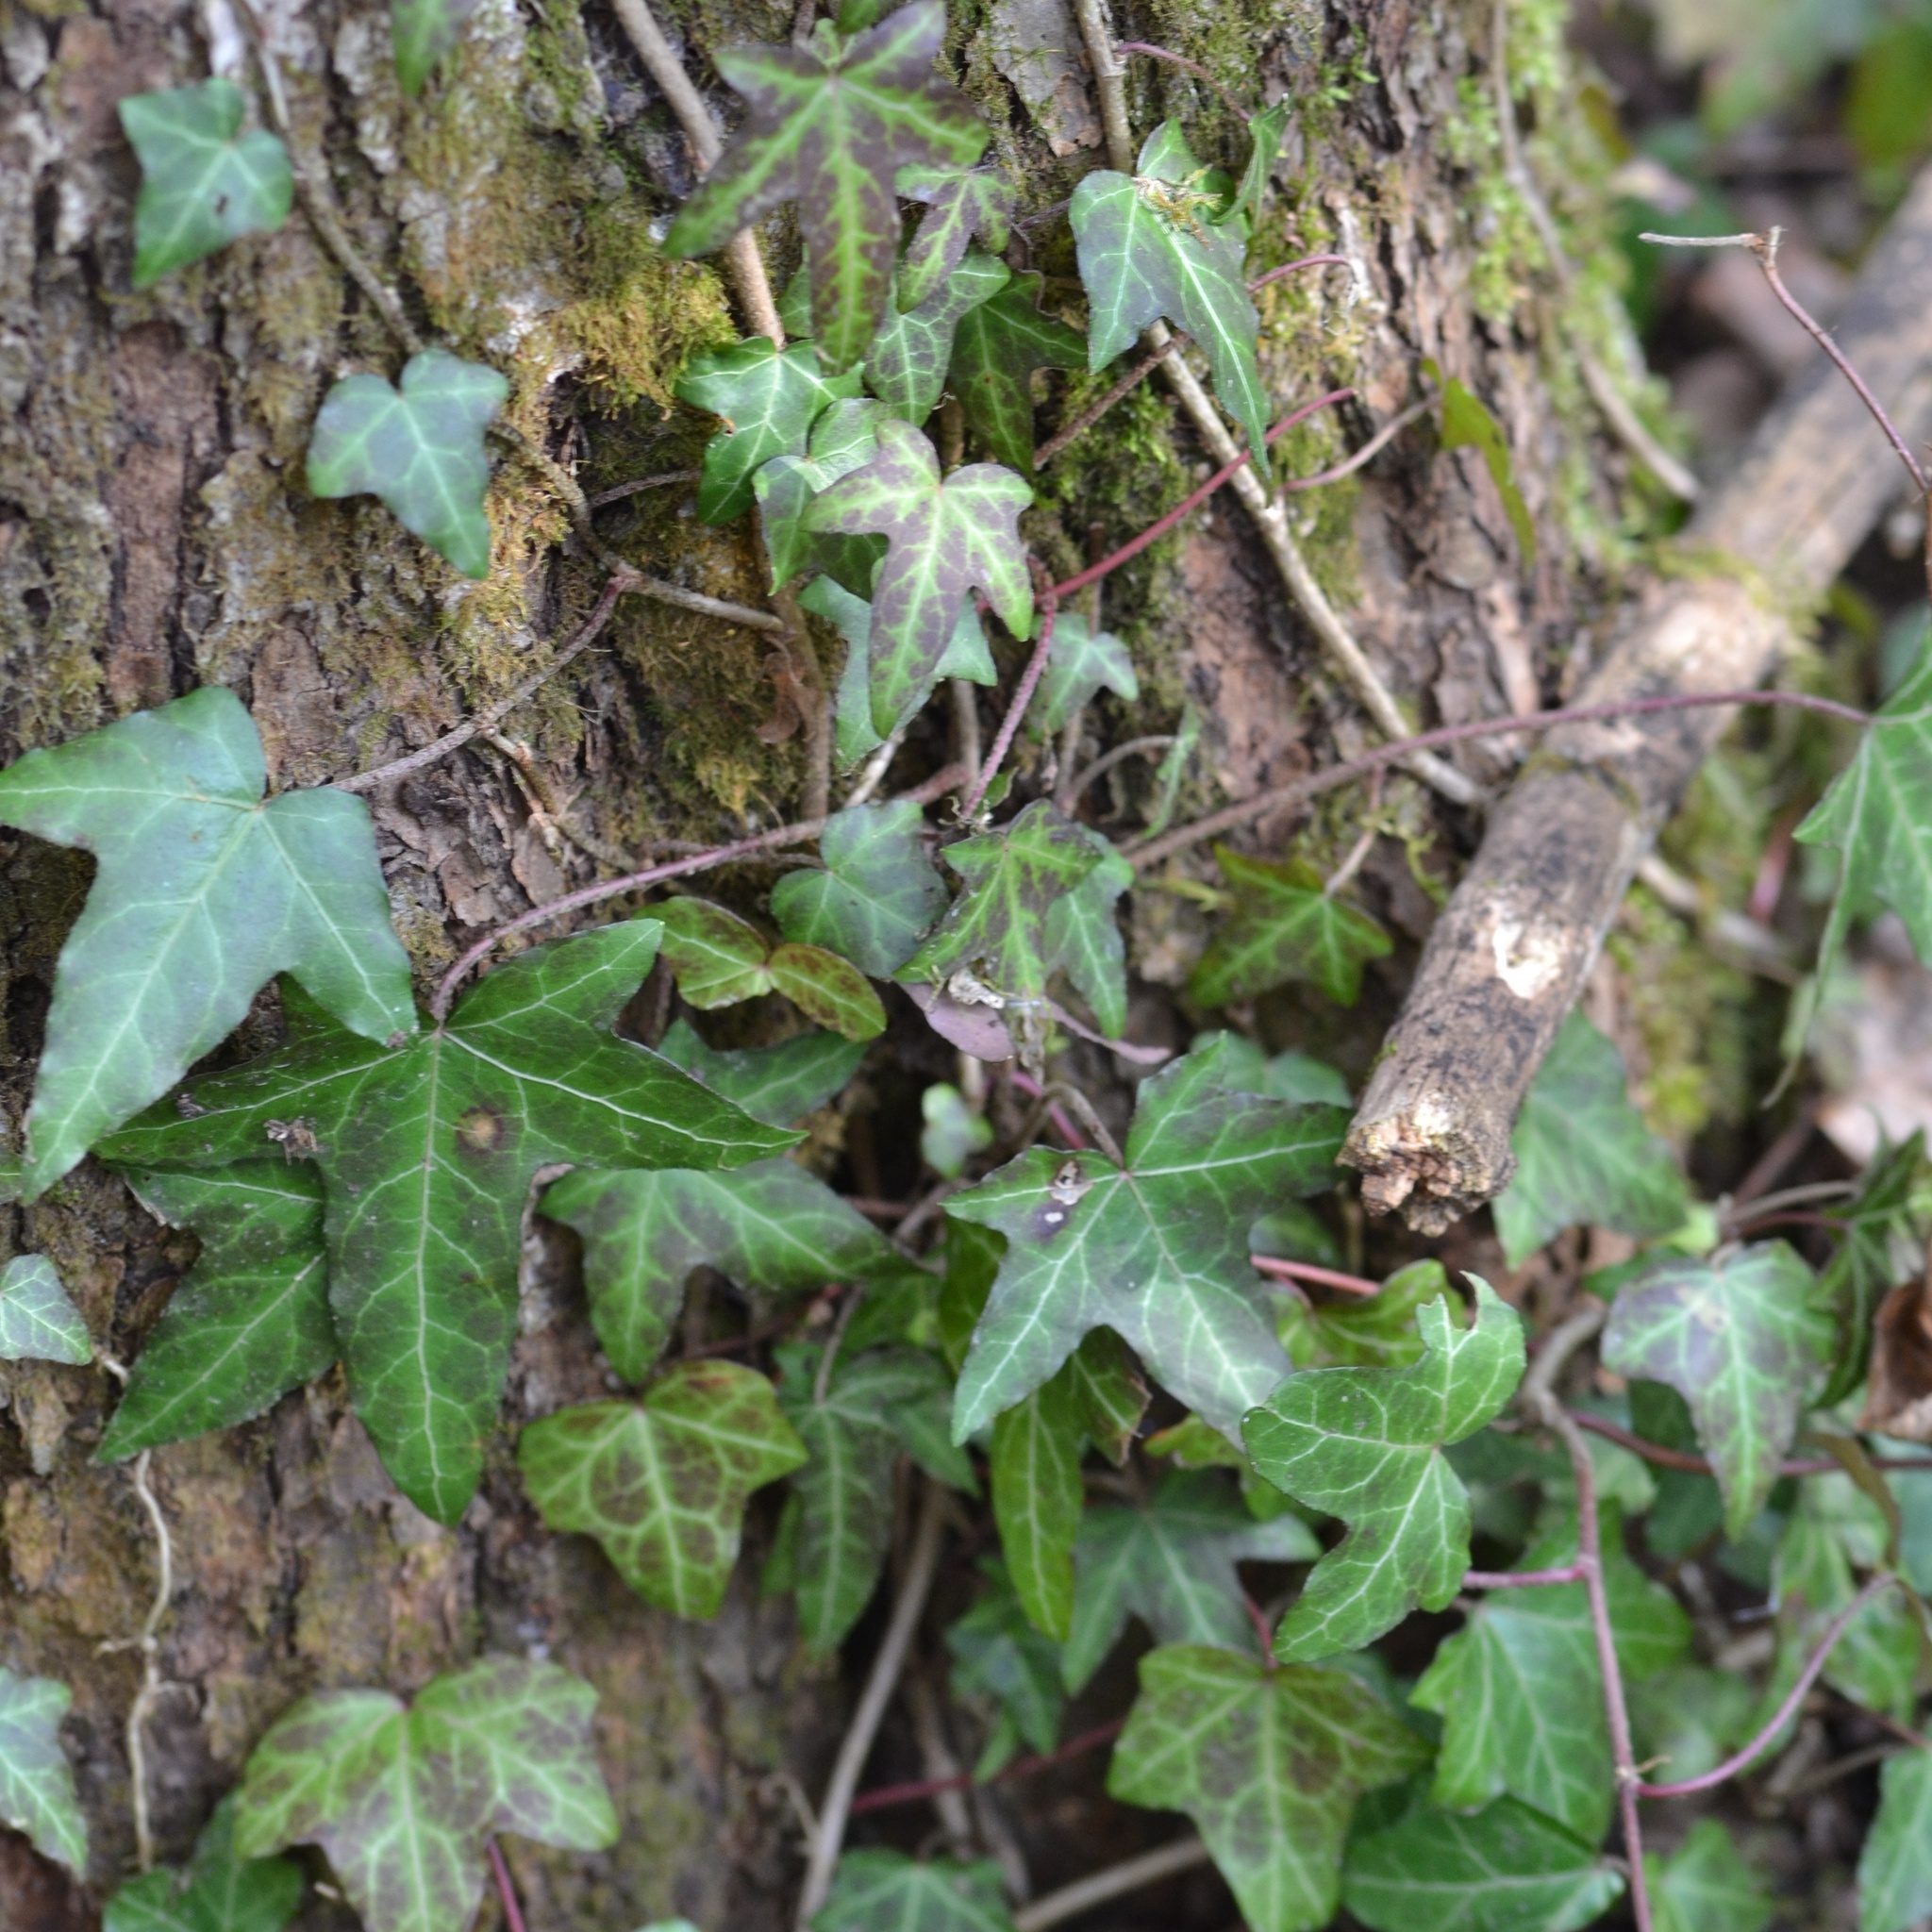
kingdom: Plantae
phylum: Tracheophyta
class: Magnoliopsida
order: Apiales
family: Araliaceae
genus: Hedera
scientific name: Hedera helix
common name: Ivy
